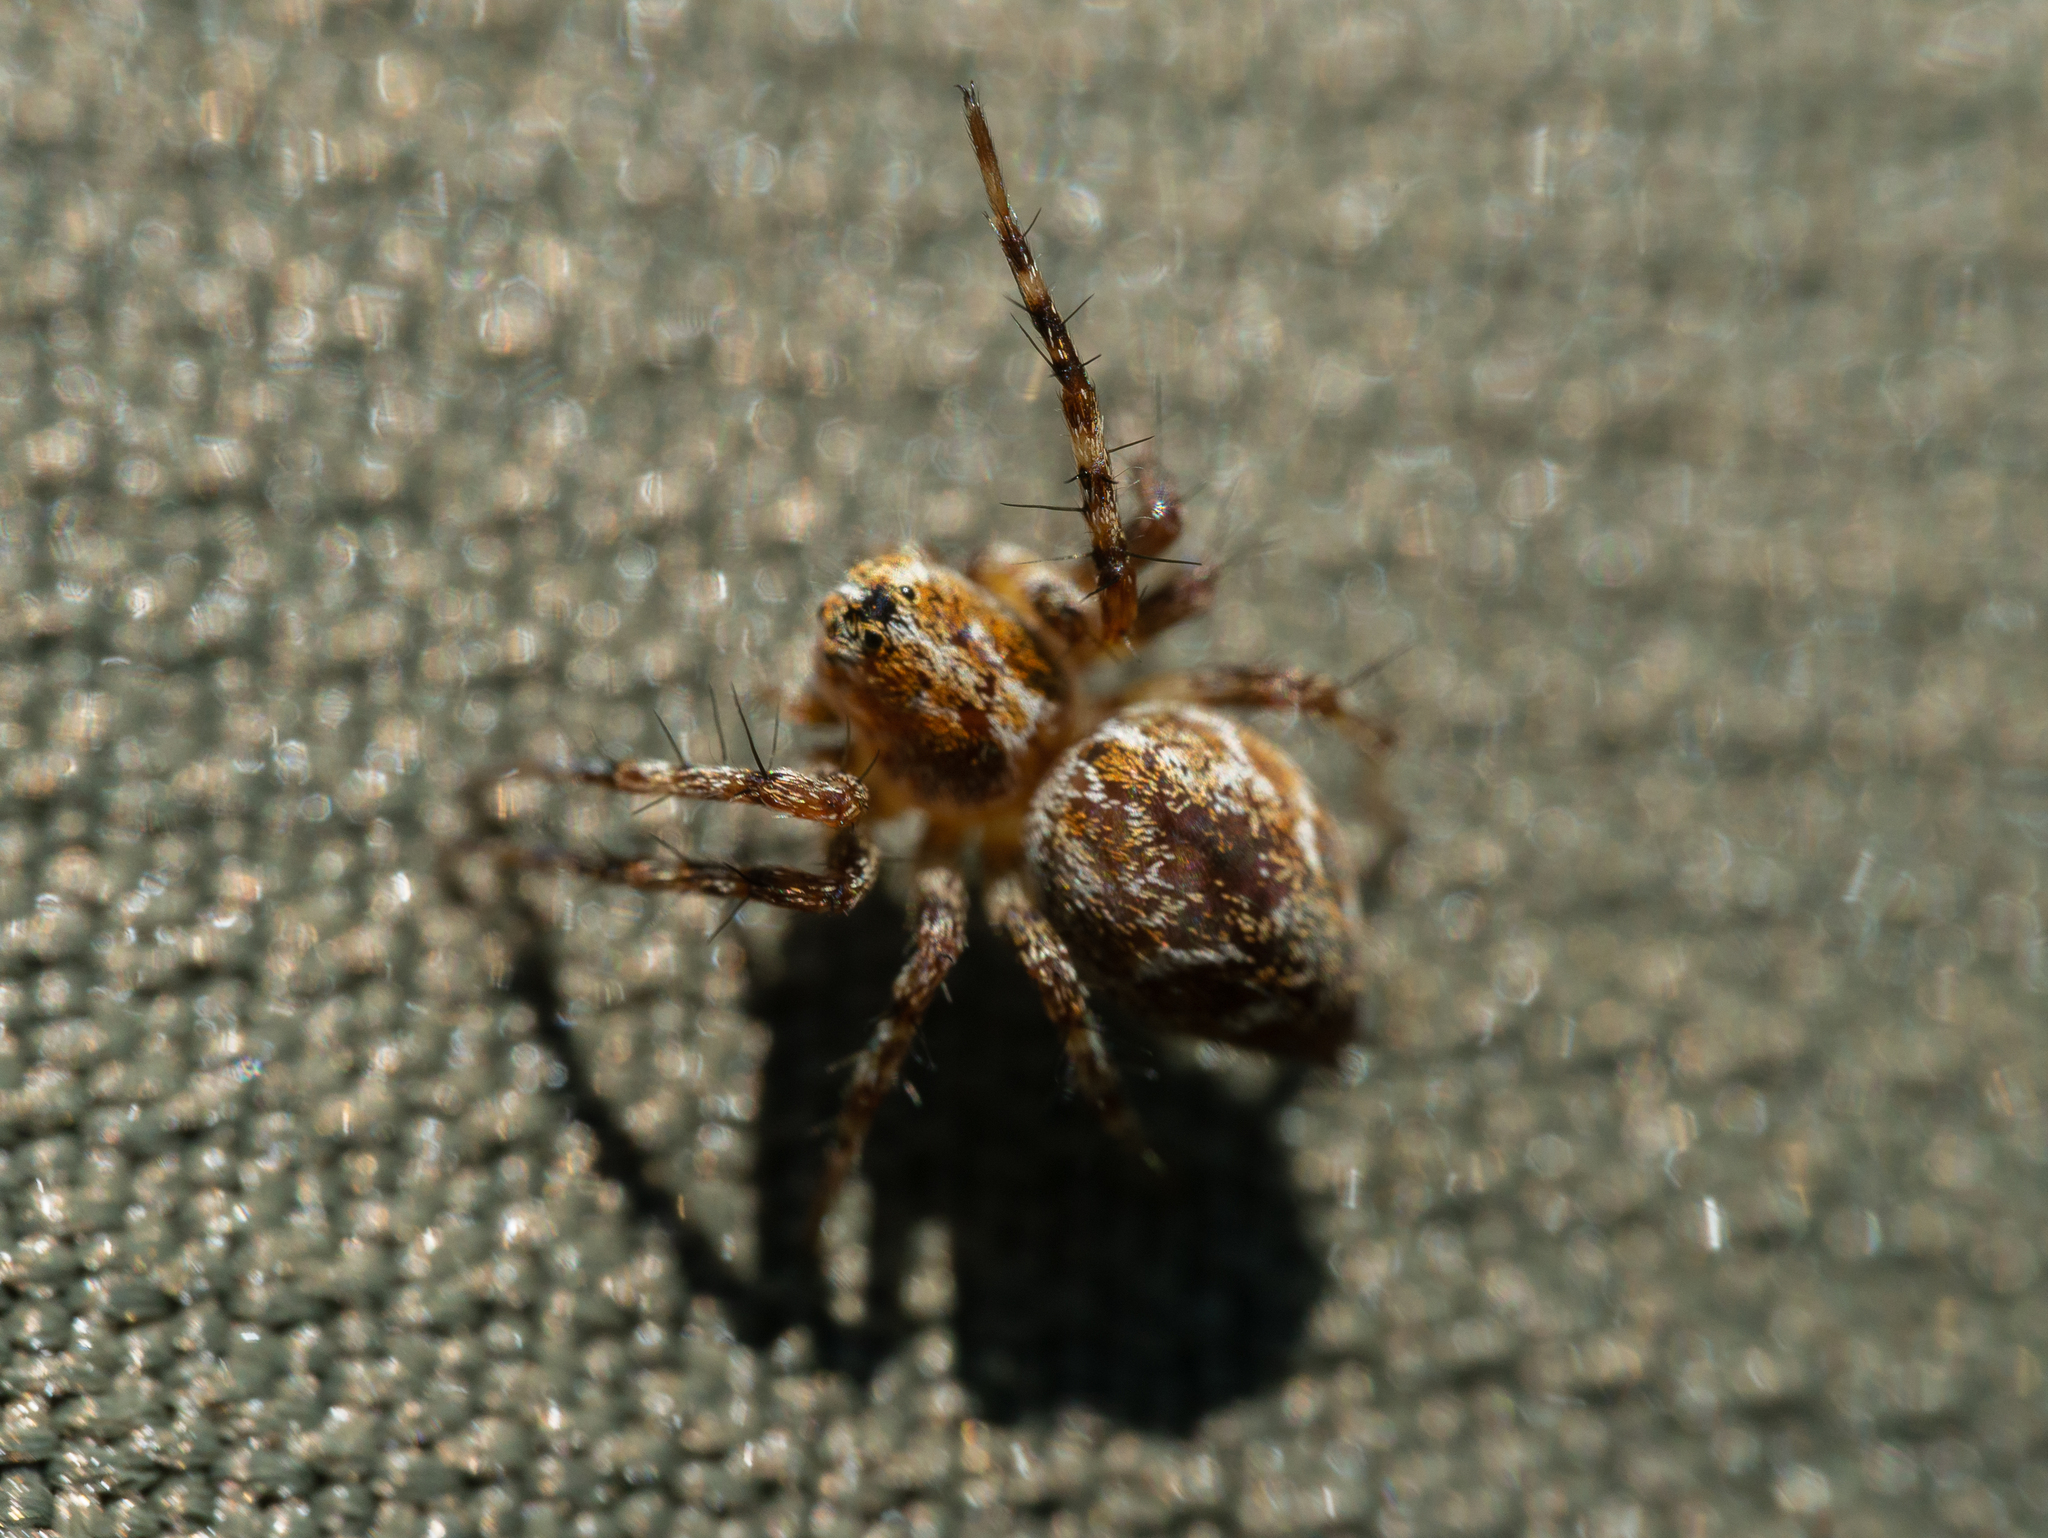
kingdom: Animalia
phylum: Arthropoda
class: Arachnida
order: Araneae
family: Oxyopidae
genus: Oxyopes
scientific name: Oxyopes ramosus
